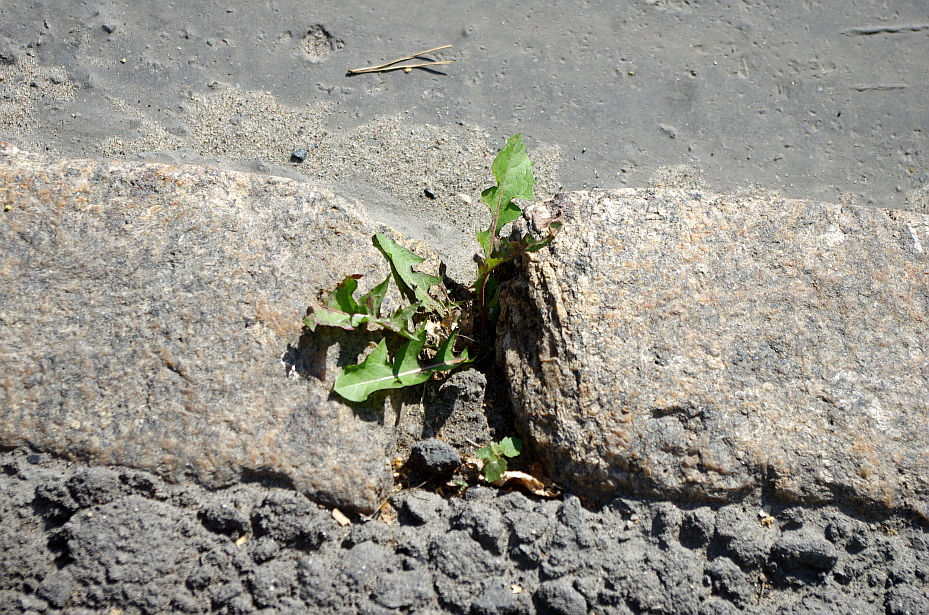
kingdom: Plantae
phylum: Tracheophyta
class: Magnoliopsida
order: Asterales
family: Asteraceae
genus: Taraxacum
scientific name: Taraxacum officinale
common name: Common dandelion
